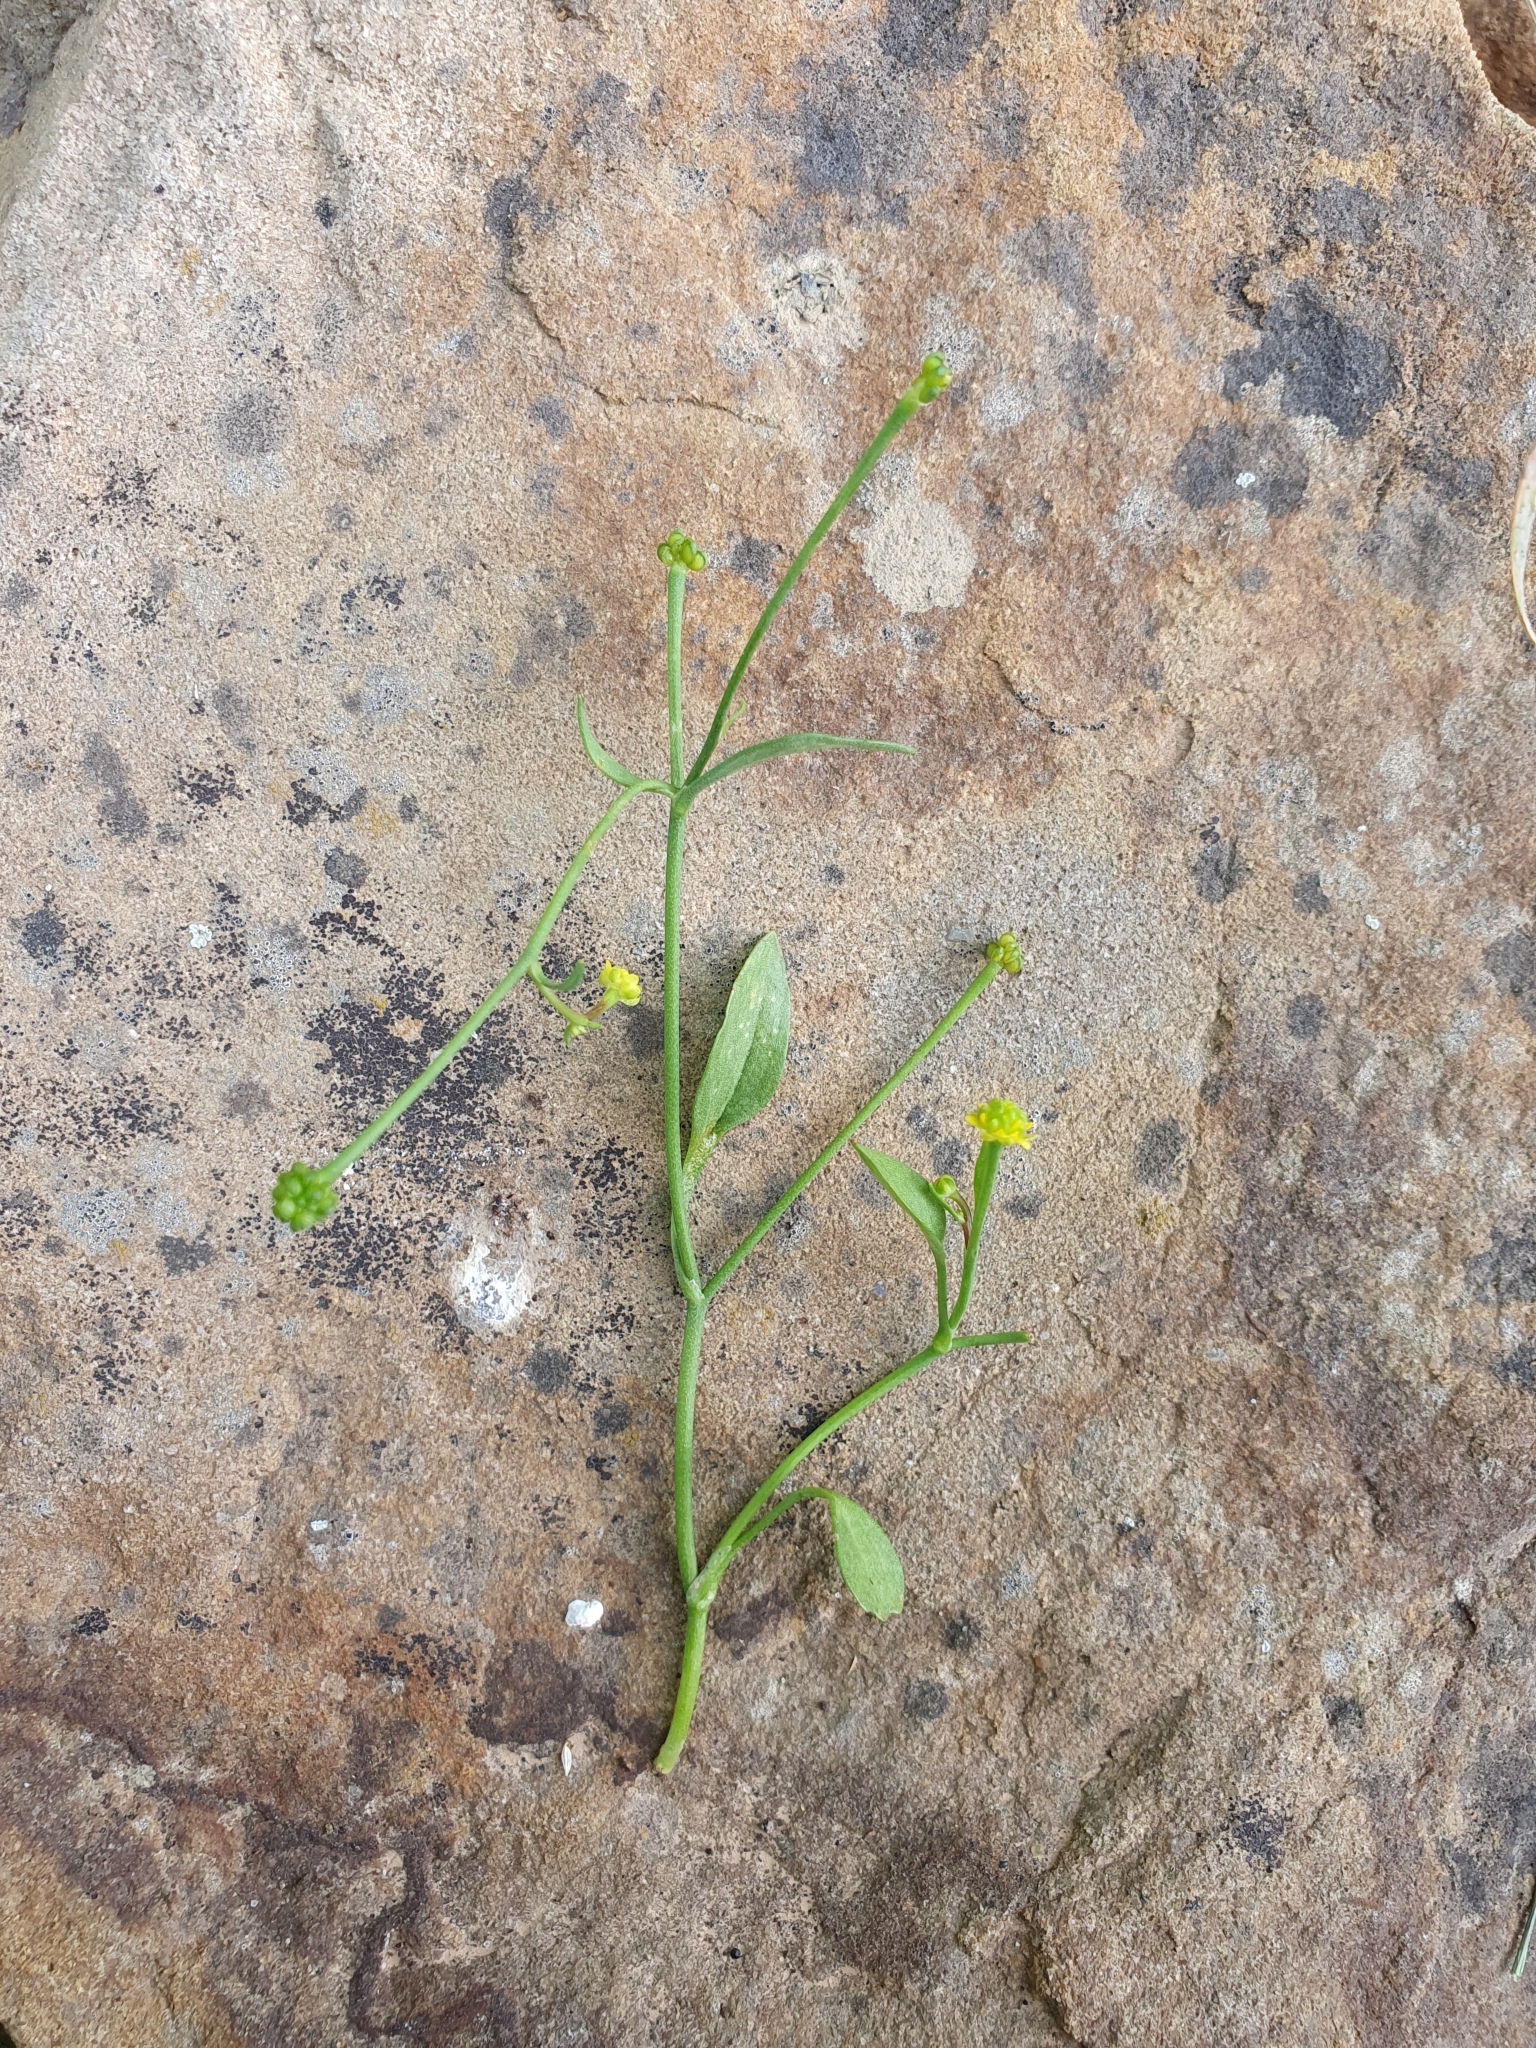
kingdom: Plantae
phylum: Tracheophyta
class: Magnoliopsida
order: Ranunculales
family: Ranunculaceae
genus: Ranunculus
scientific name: Ranunculus ophioglossifolius
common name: Adder's-tongue spearwort
